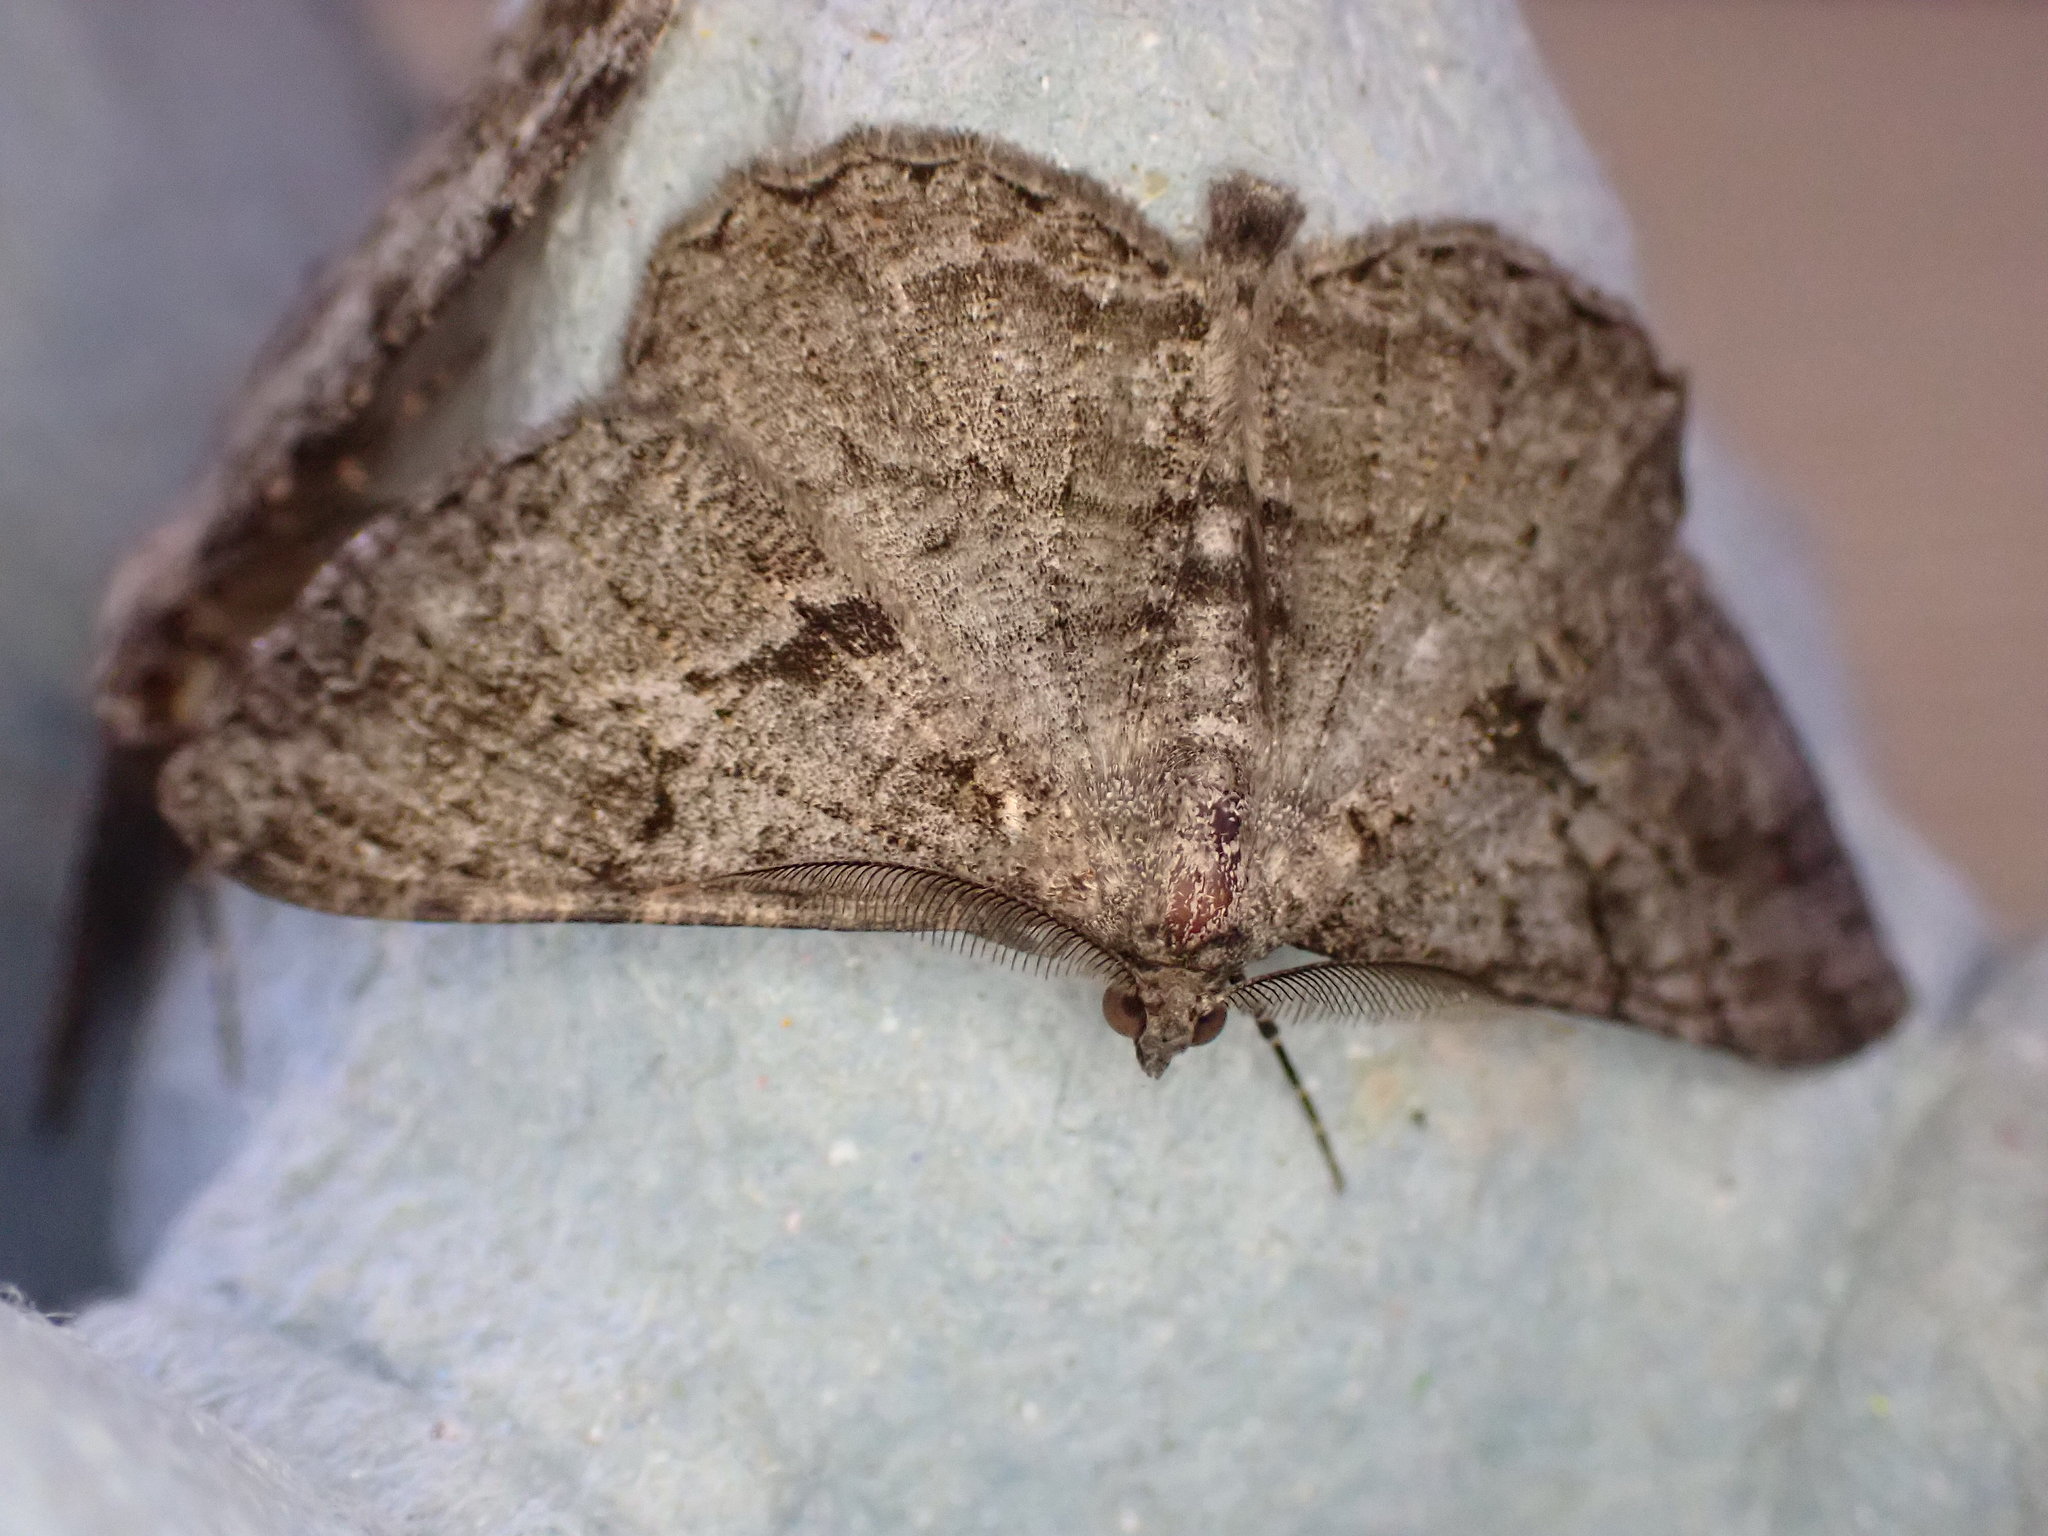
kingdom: Animalia
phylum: Arthropoda
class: Insecta
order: Lepidoptera
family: Geometridae
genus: Peribatodes
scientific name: Peribatodes rhomboidaria
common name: Willow beauty
